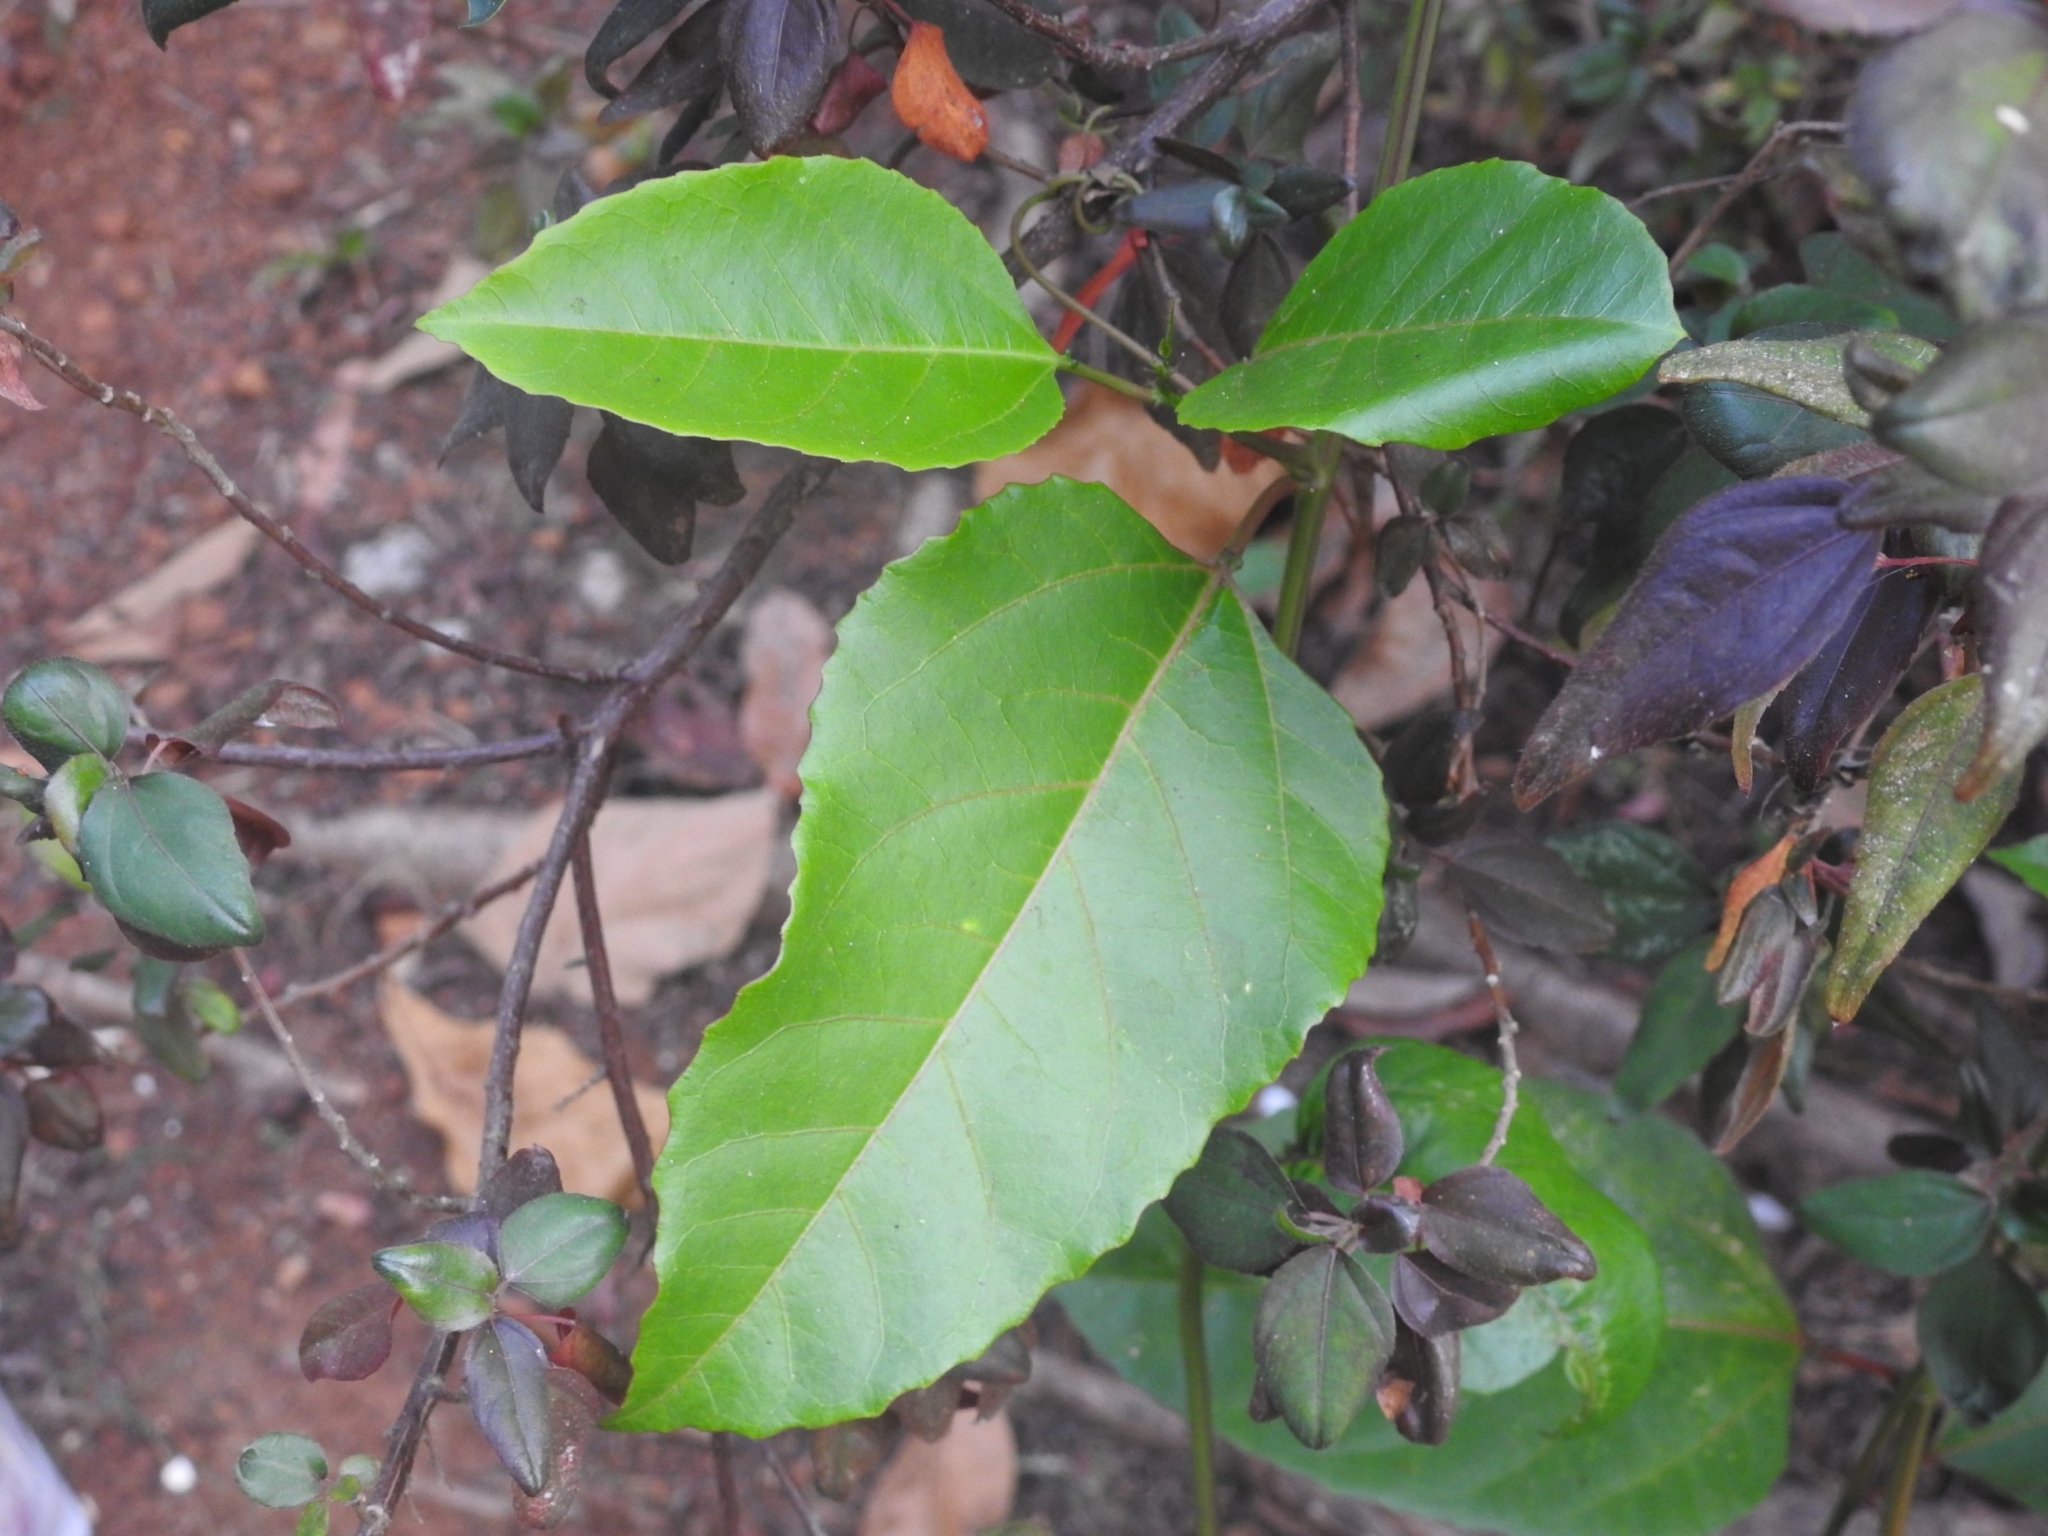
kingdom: Plantae
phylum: Tracheophyta
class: Magnoliopsida
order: Malpighiales
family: Passifloraceae
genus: Passiflora
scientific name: Passiflora edulis
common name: Purple granadilla
